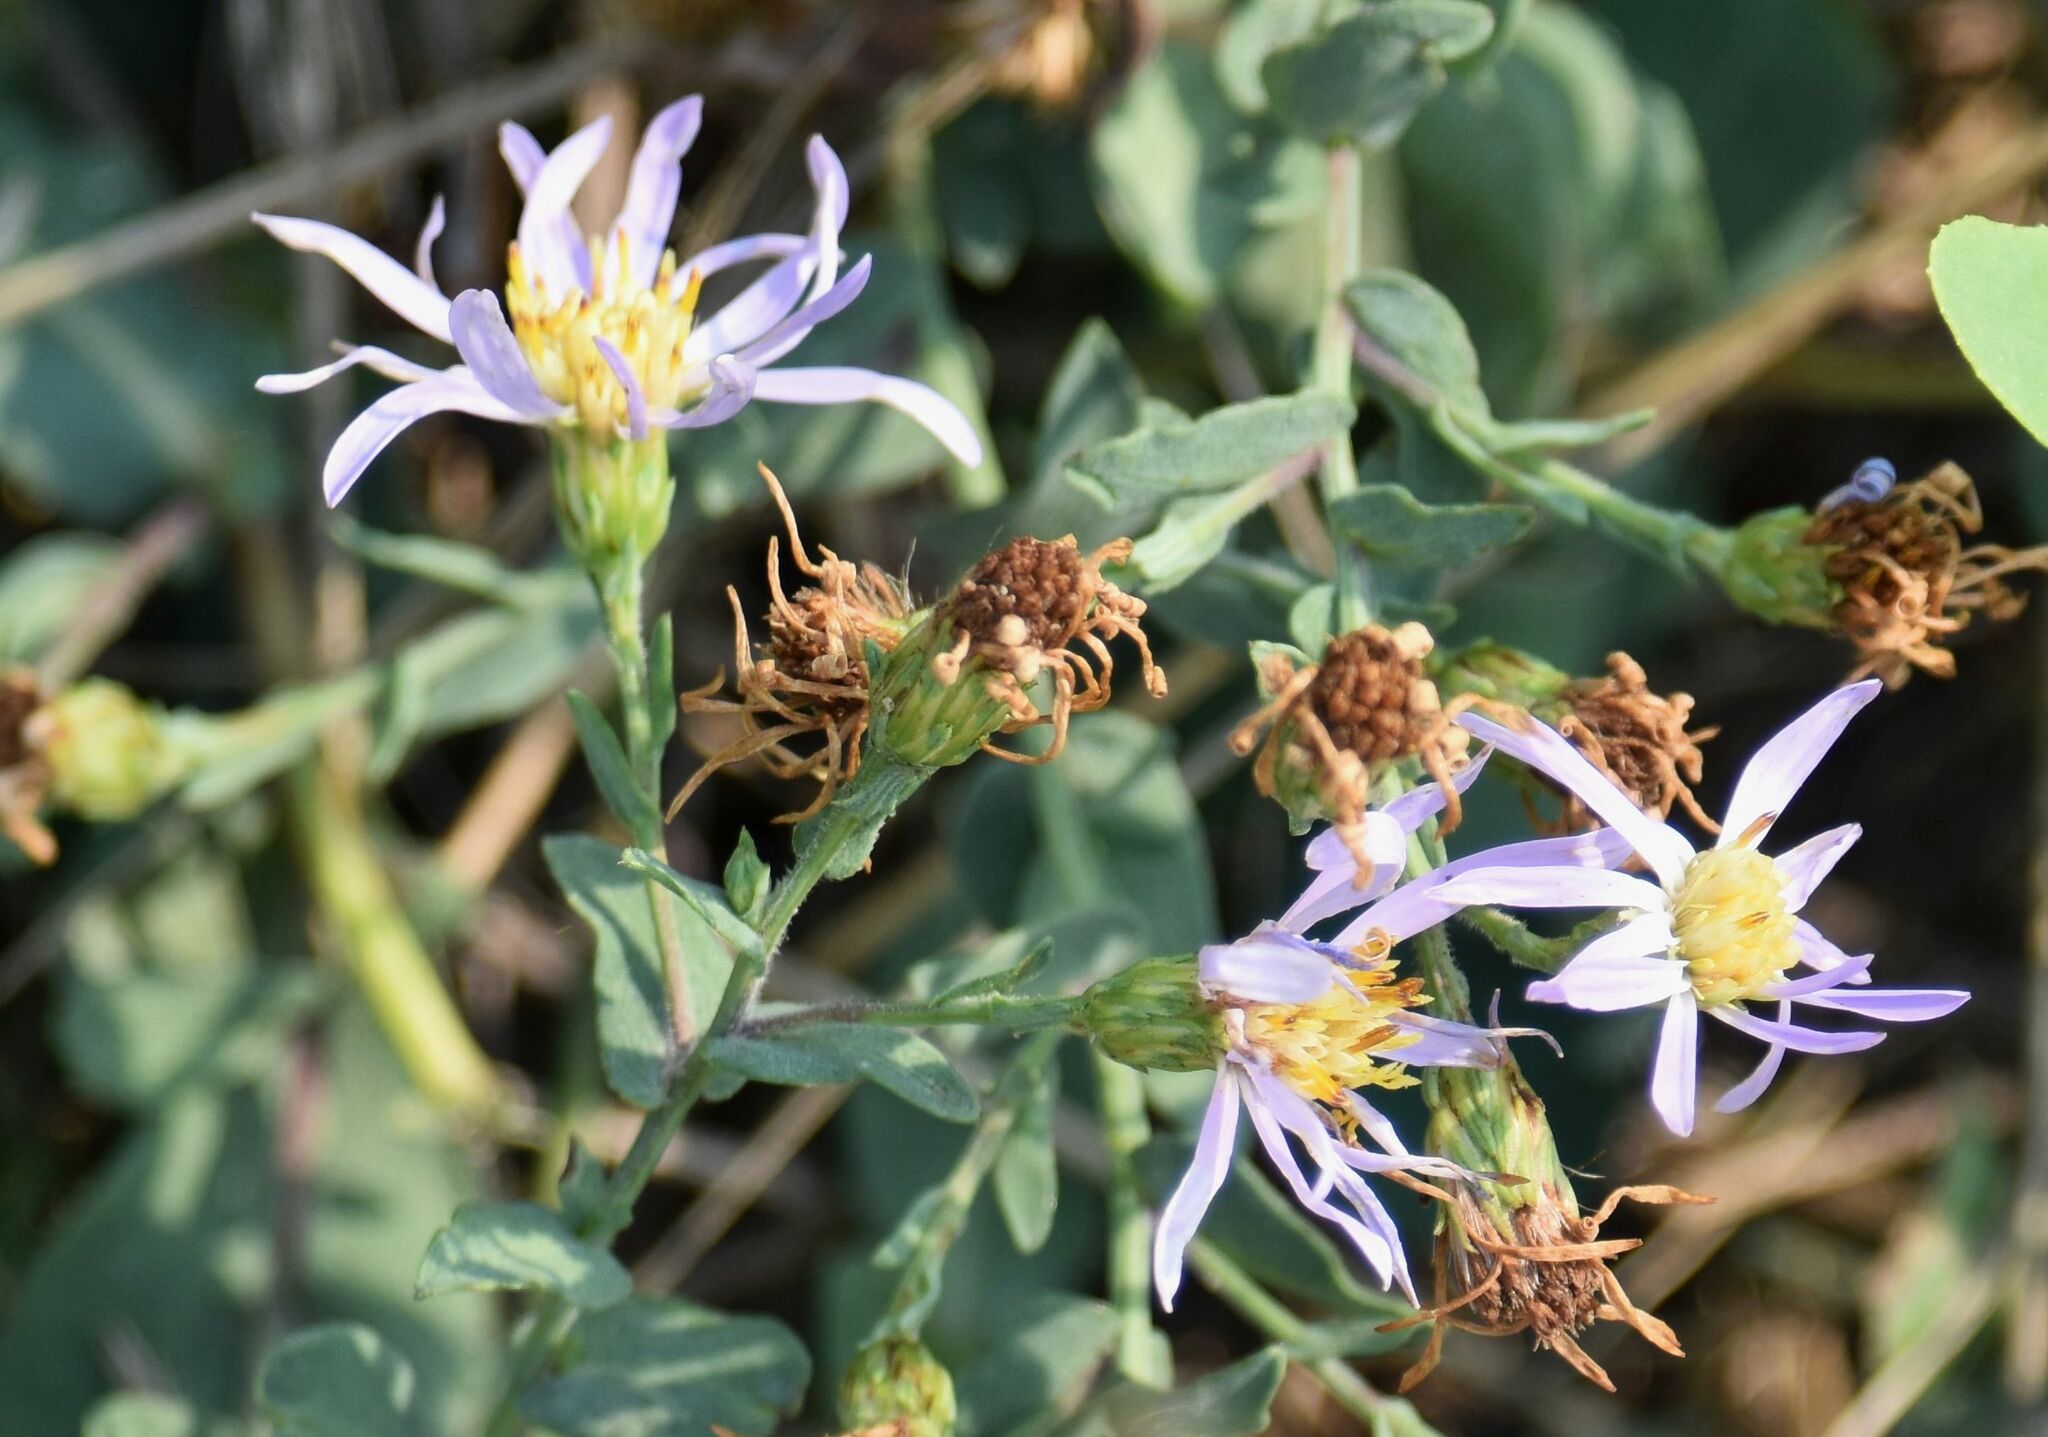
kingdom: Plantae
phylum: Tracheophyta
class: Magnoliopsida
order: Asterales
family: Asteraceae
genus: Symphyotrichum
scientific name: Symphyotrichum laeve
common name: Glaucous aster
